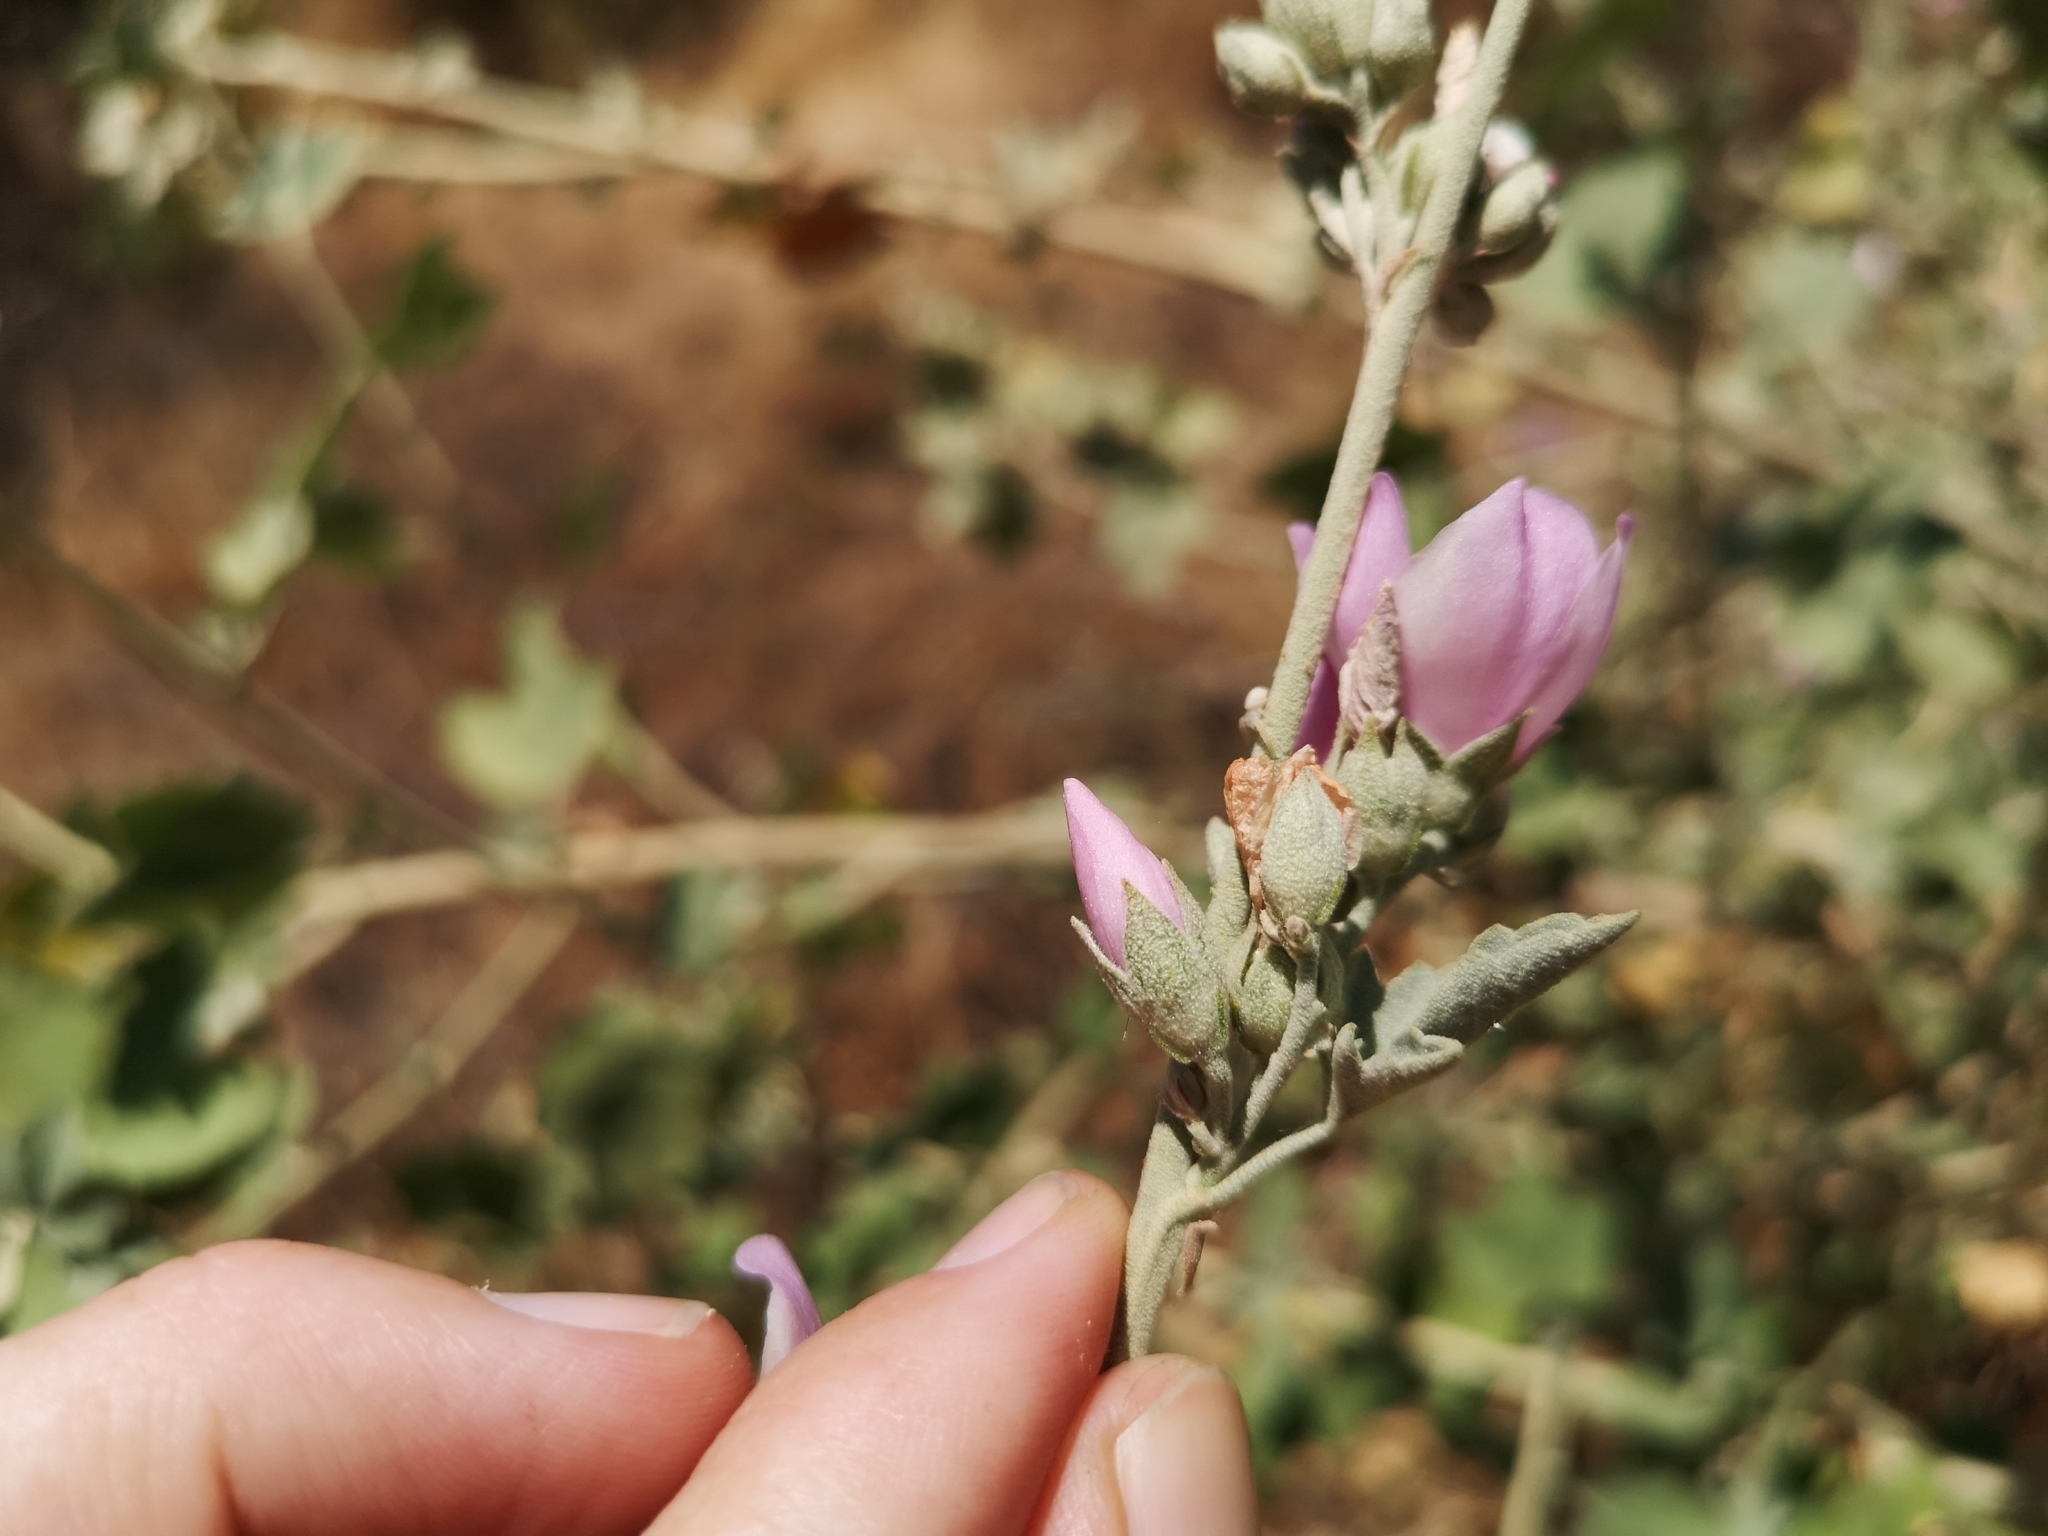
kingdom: Plantae
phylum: Tracheophyta
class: Magnoliopsida
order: Malvales
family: Malvaceae
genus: Malacothamnus
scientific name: Malacothamnus fasciculatus
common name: Sant cruz island bush-mallow
